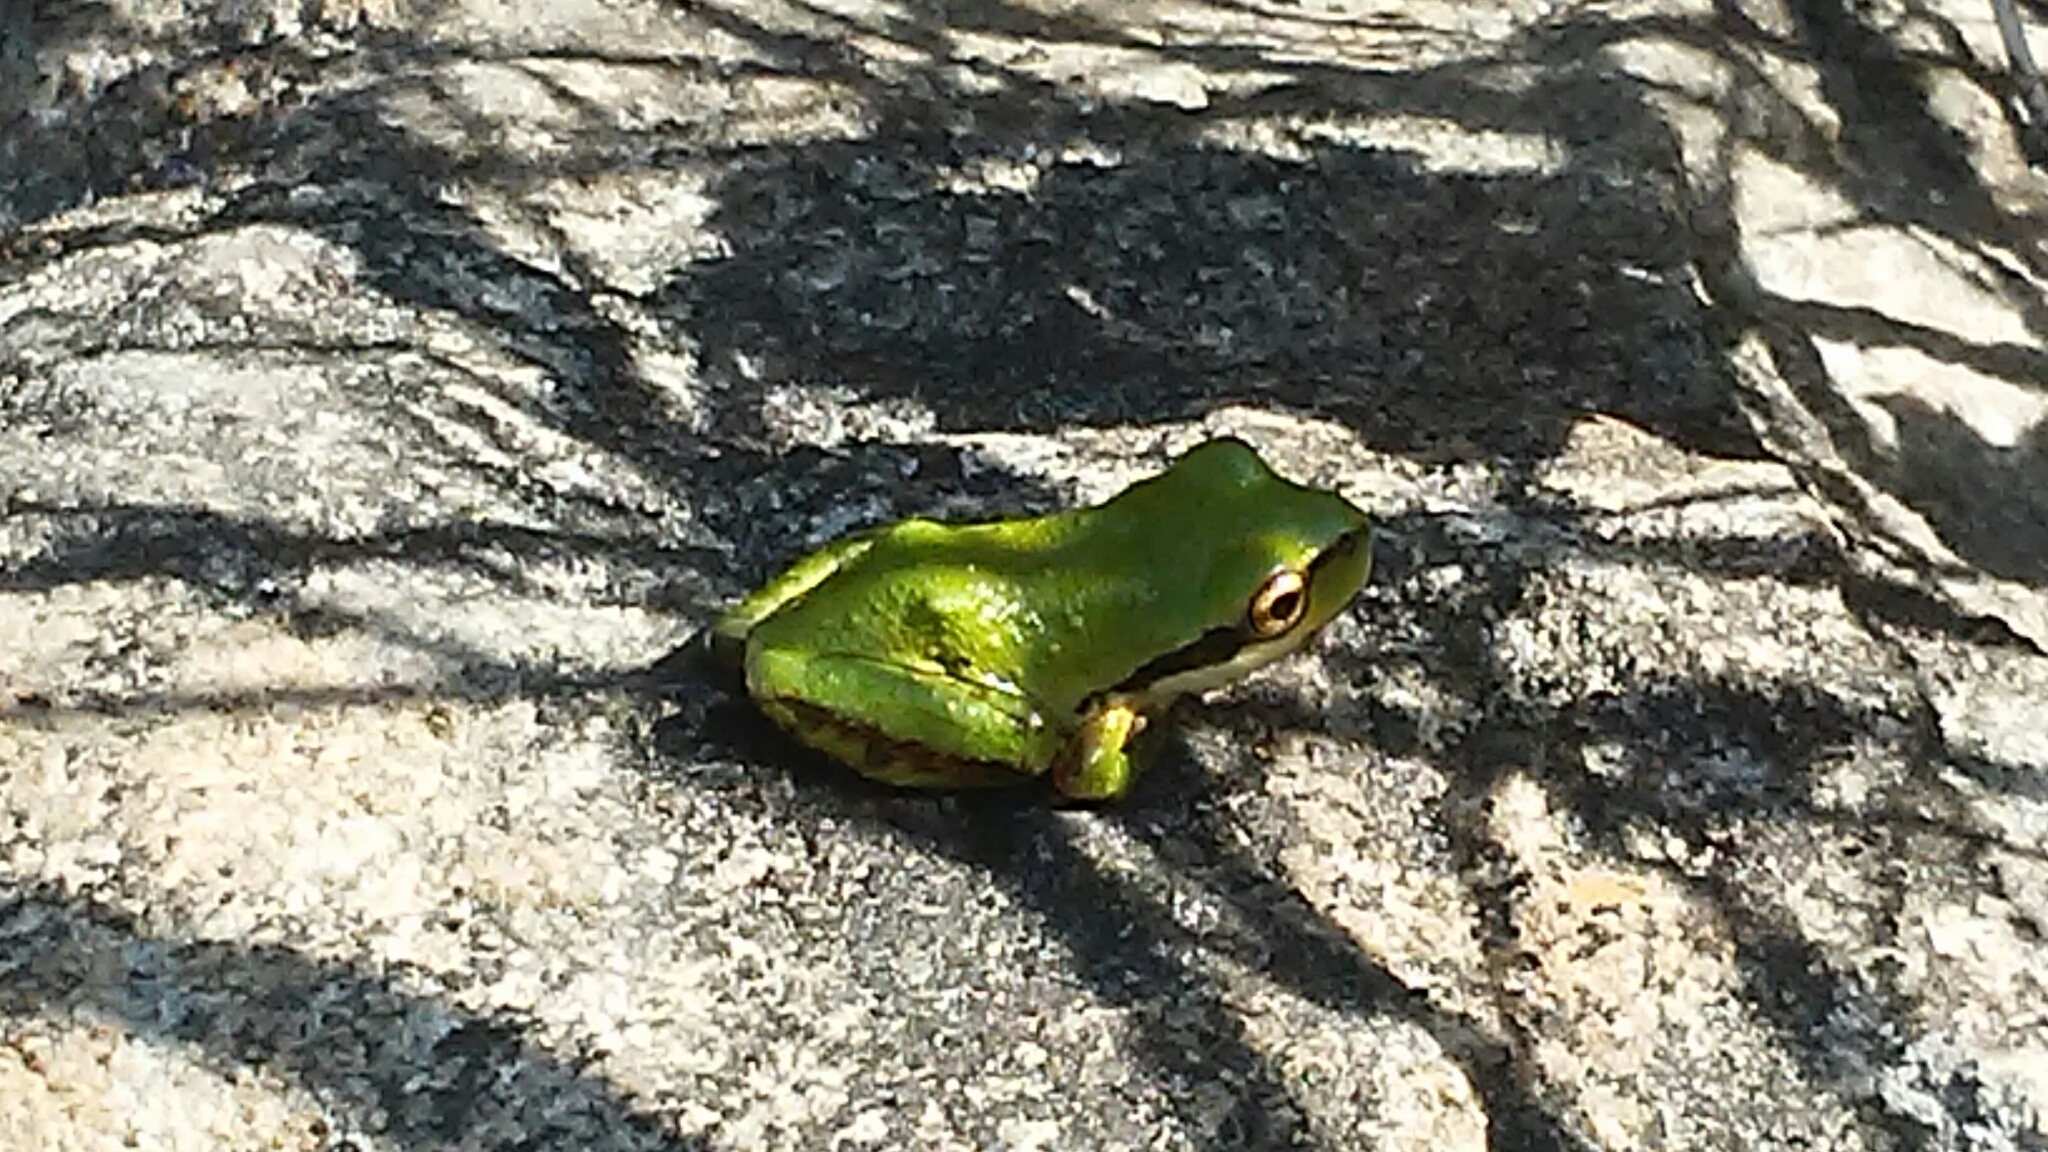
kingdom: Animalia
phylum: Chordata
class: Amphibia
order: Anura
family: Hylidae
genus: Pseudacris
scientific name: Pseudacris regilla
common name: Pacific chorus frog
